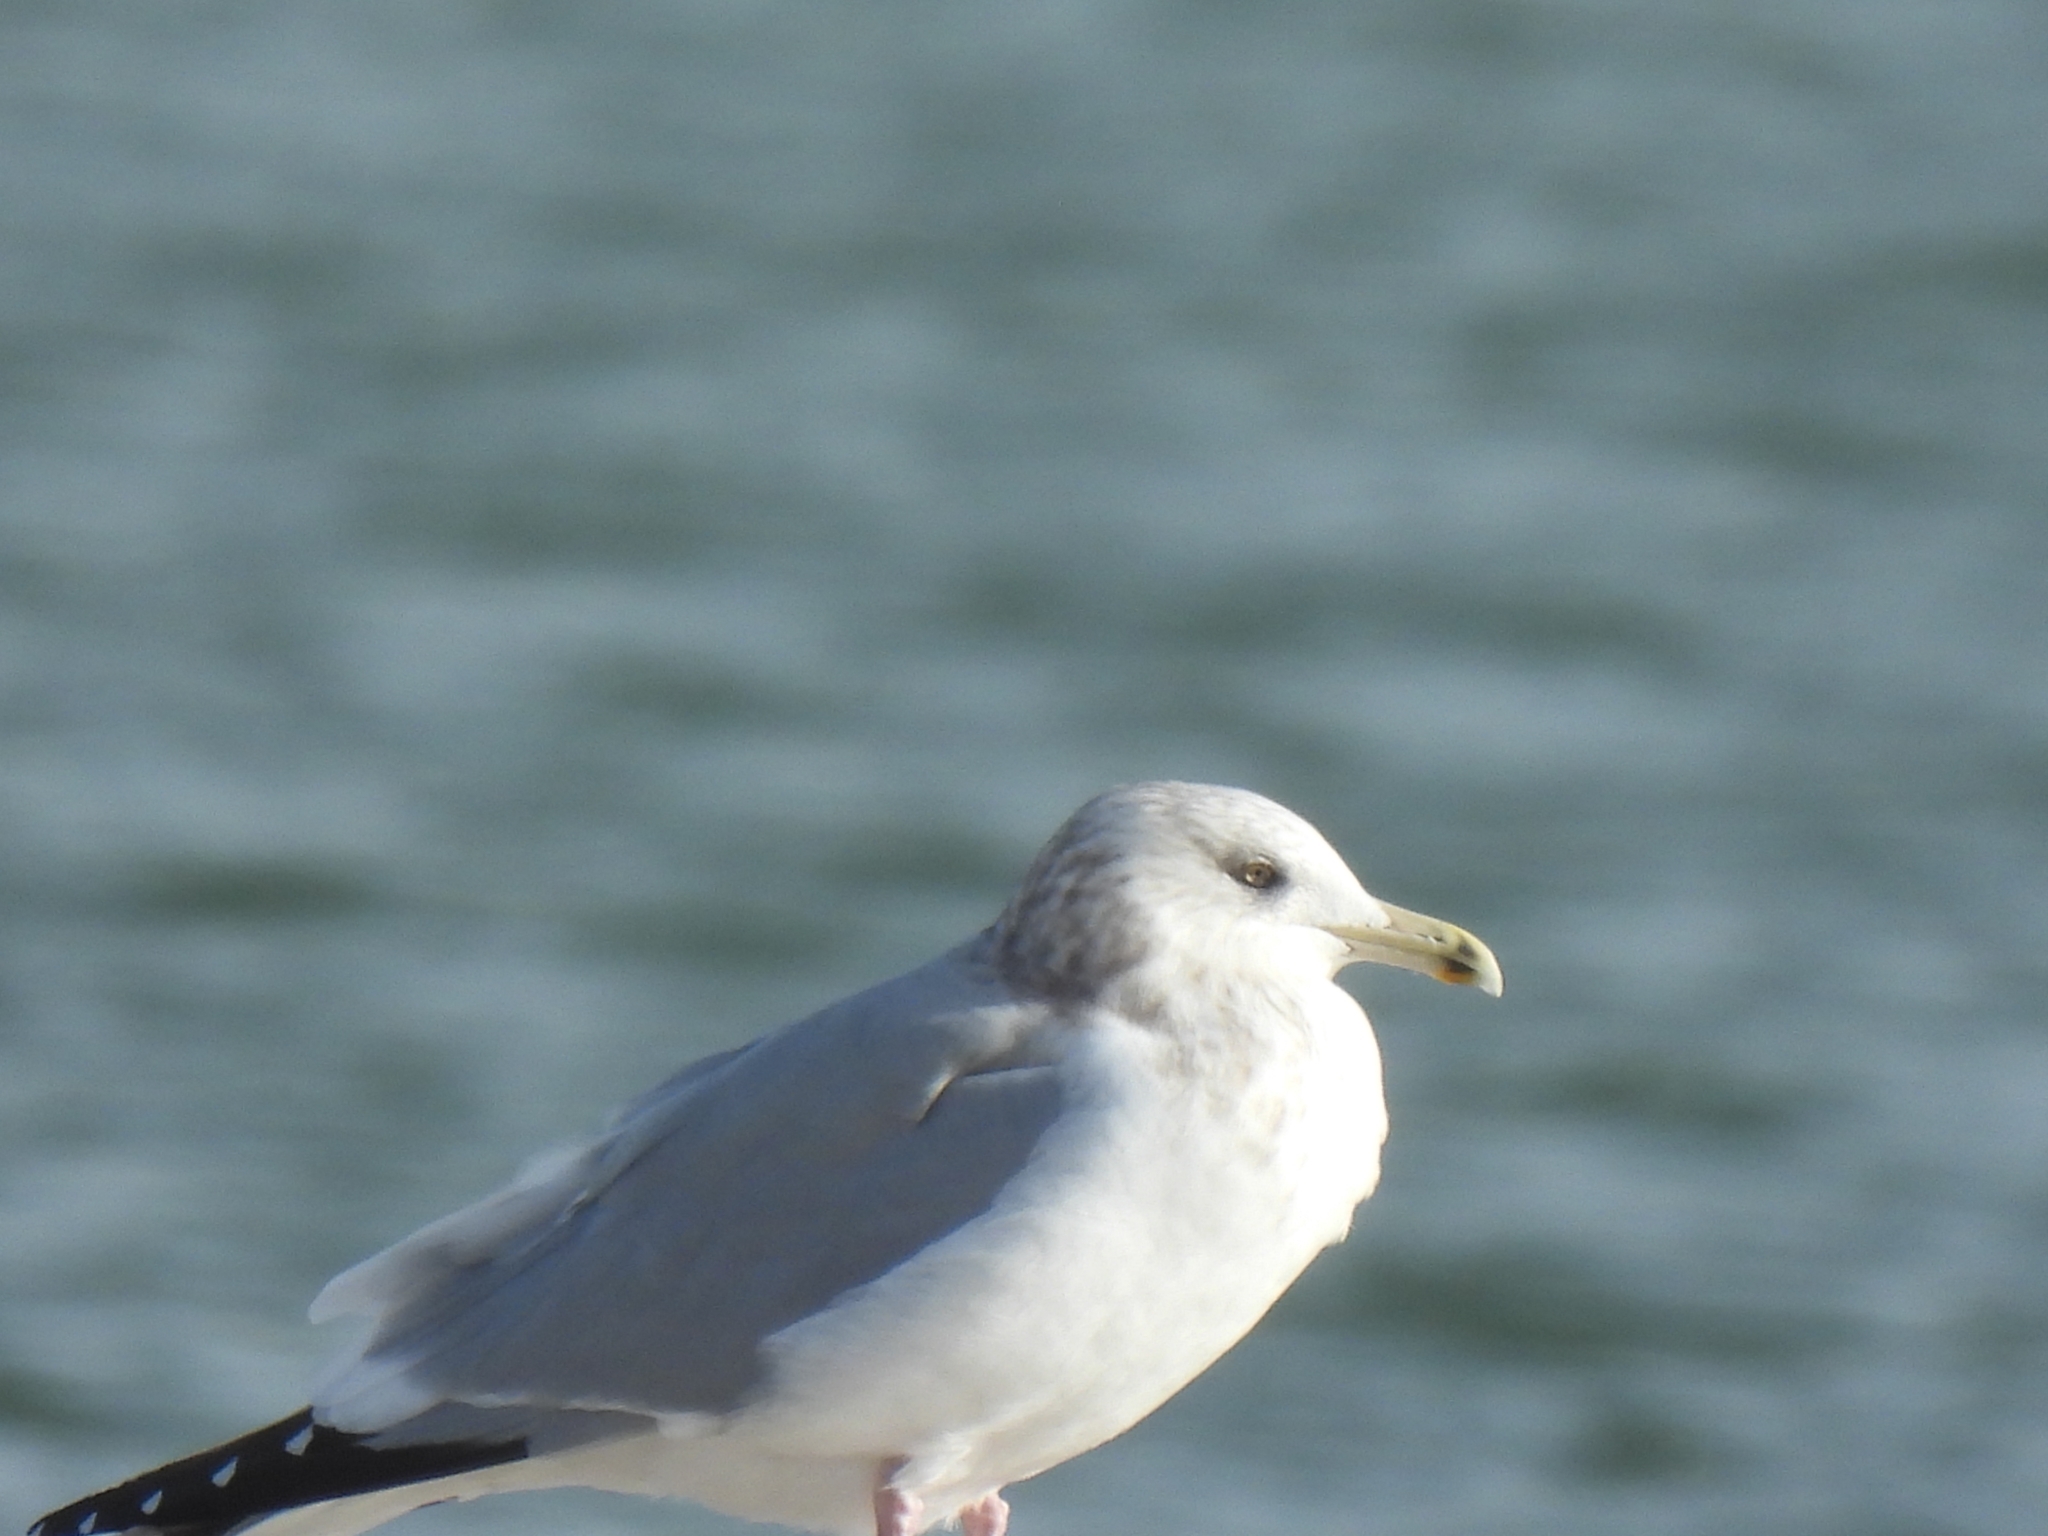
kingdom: Animalia
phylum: Chordata
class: Aves
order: Charadriiformes
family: Laridae
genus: Larus
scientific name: Larus argentatus
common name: Herring gull
